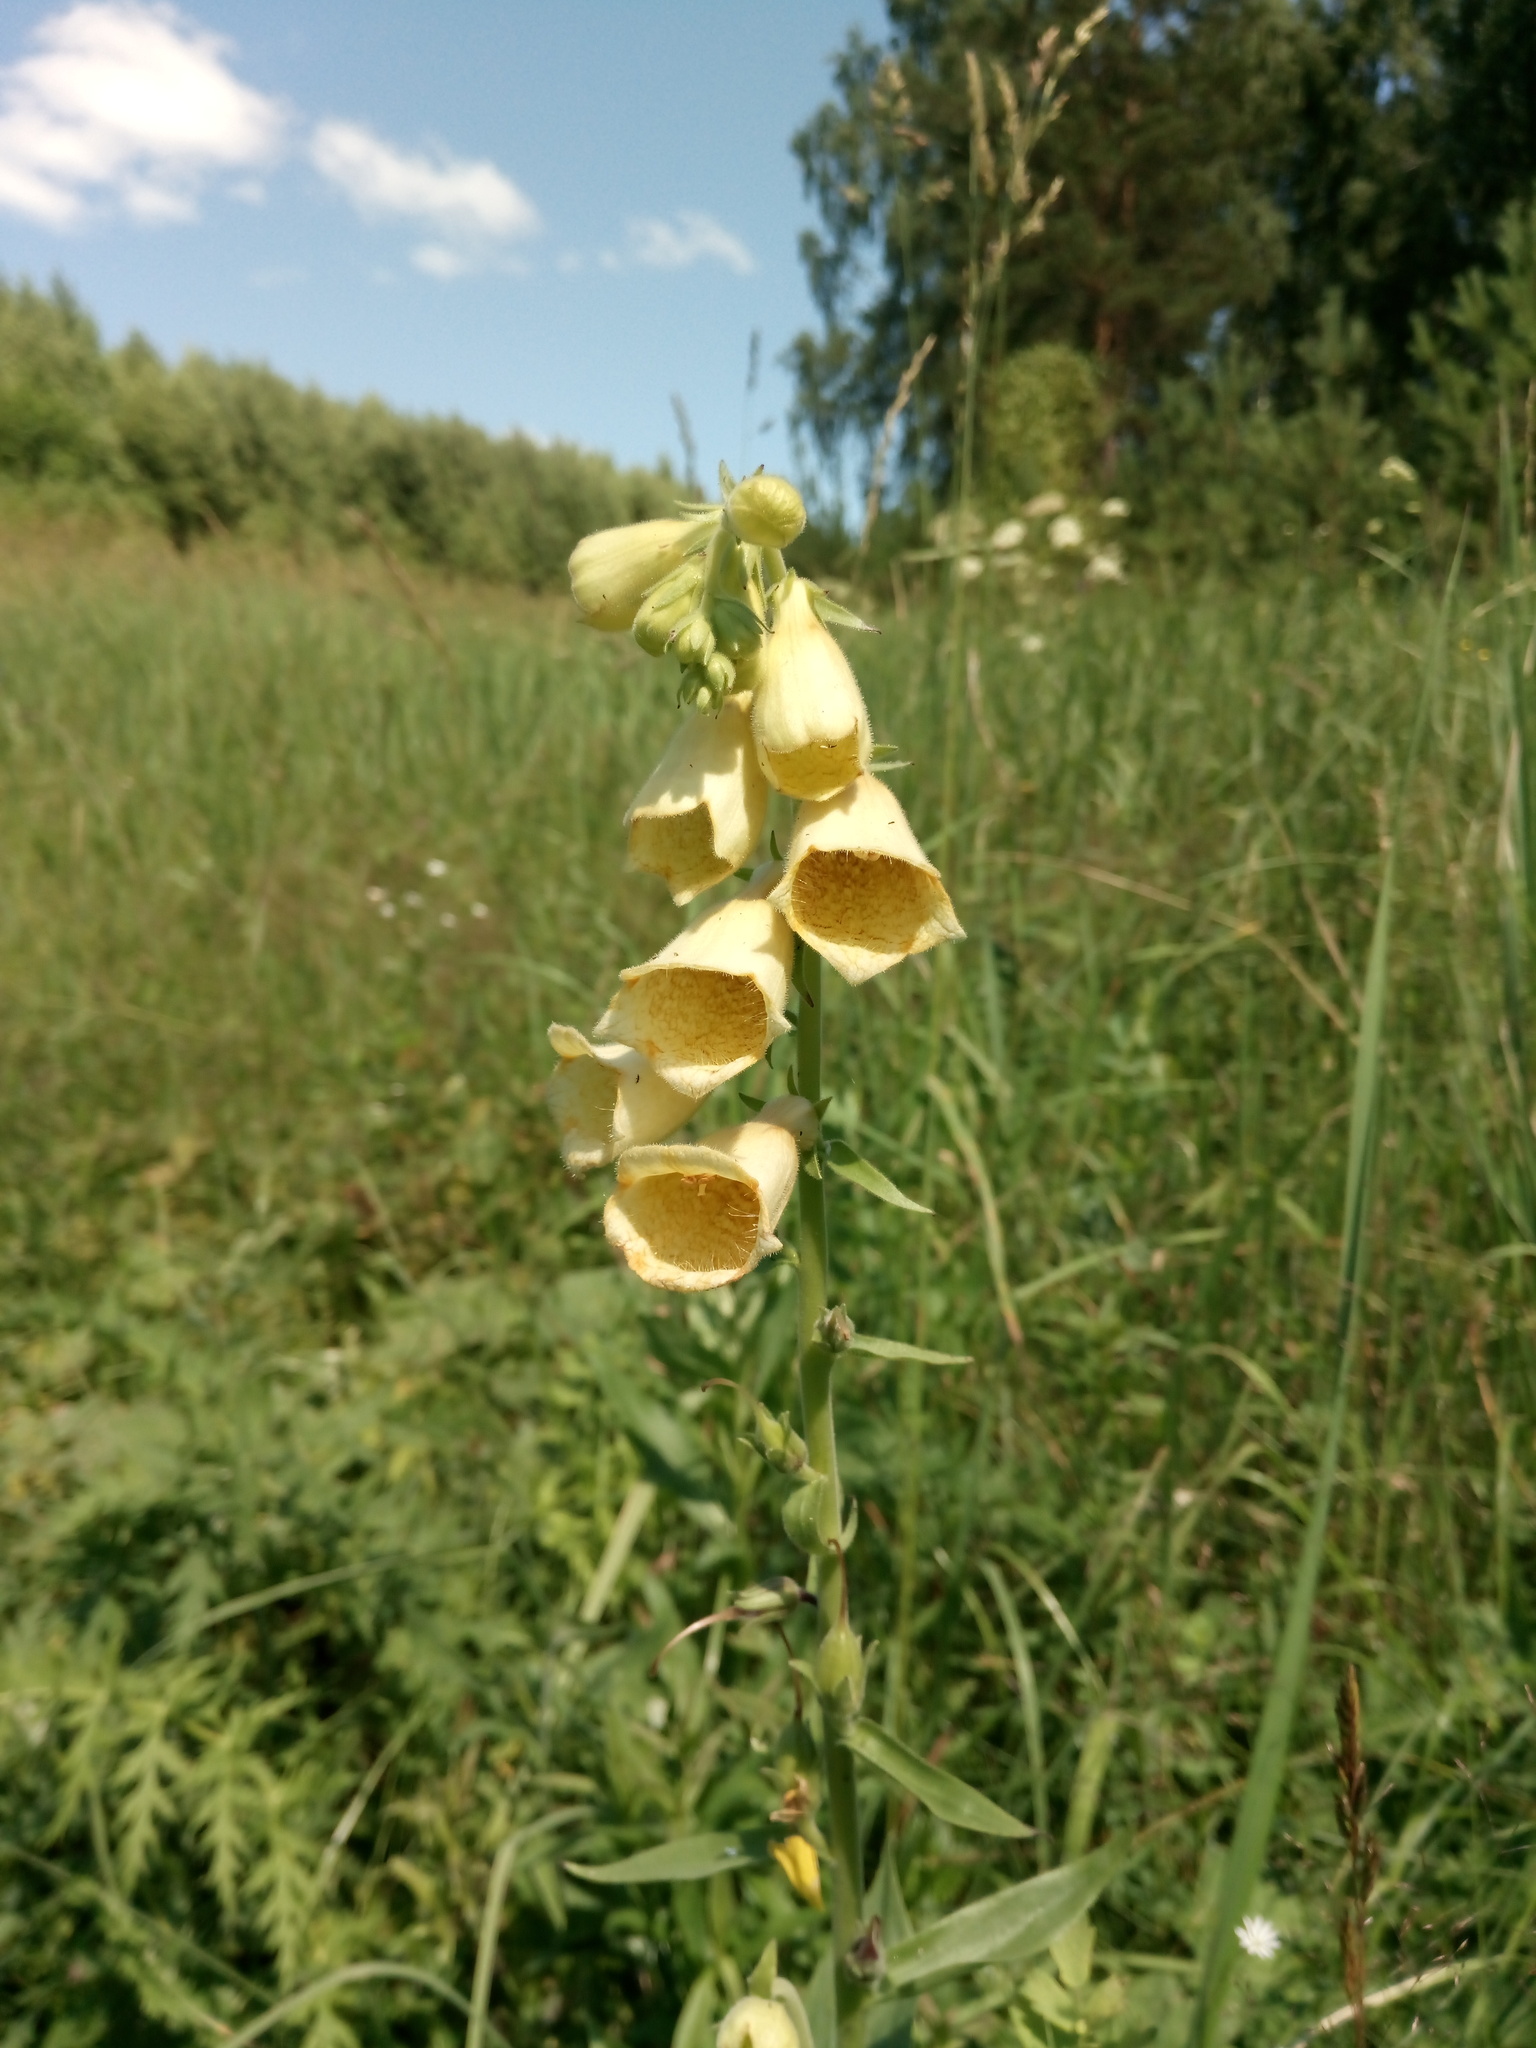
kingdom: Plantae
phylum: Tracheophyta
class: Magnoliopsida
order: Lamiales
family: Plantaginaceae
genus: Digitalis
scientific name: Digitalis grandiflora
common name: Yellow foxglove
